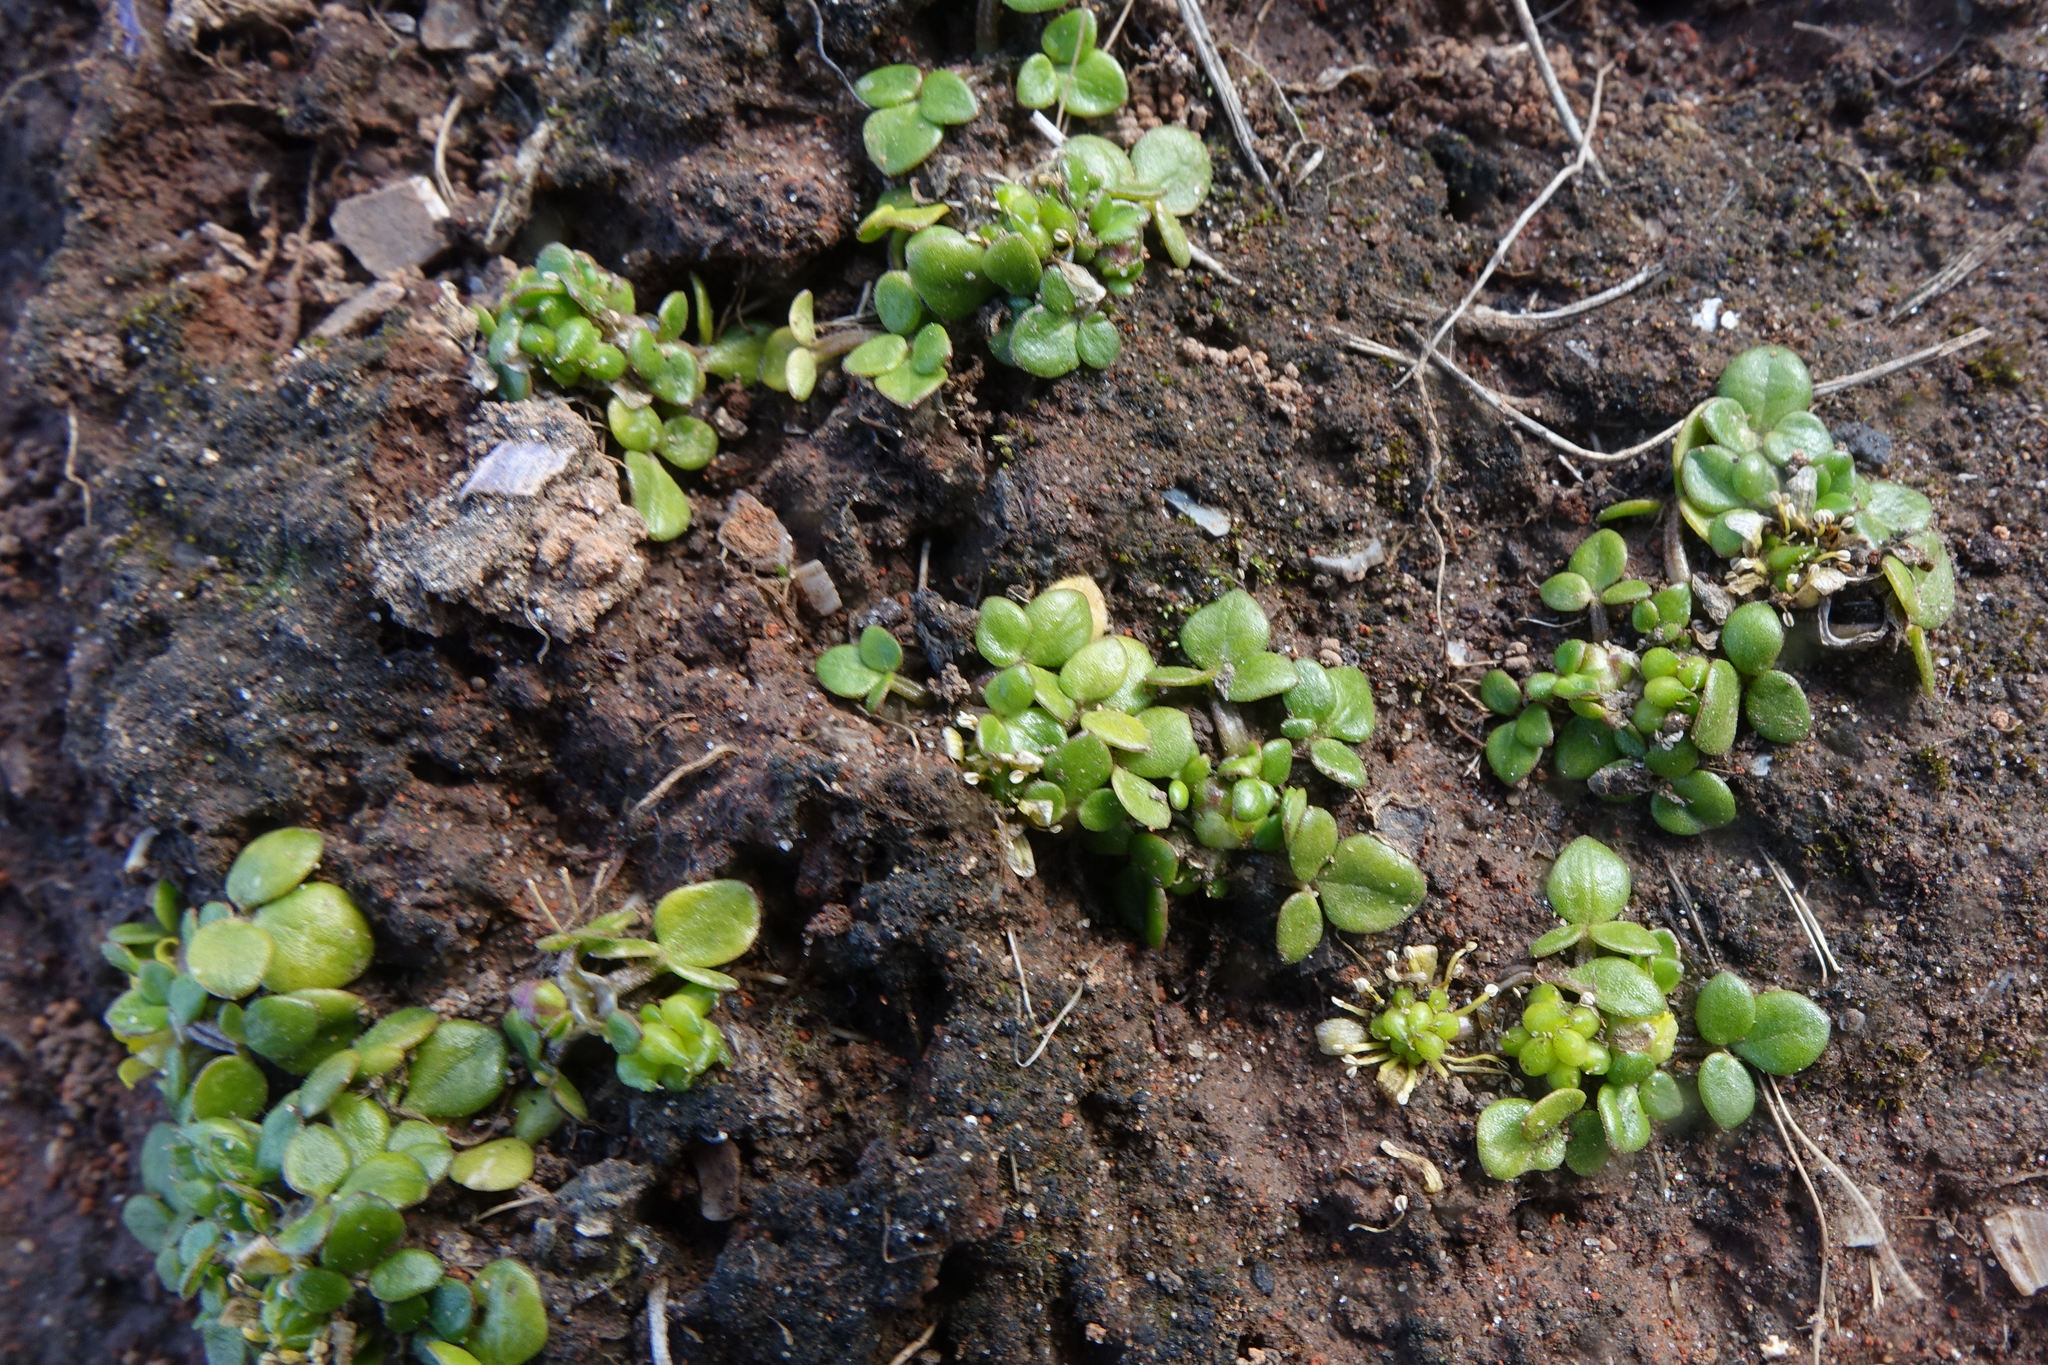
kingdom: Plantae
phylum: Tracheophyta
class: Magnoliopsida
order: Ranunculales
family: Ranunculaceae
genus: Ranunculus
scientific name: Ranunculus acaulis
